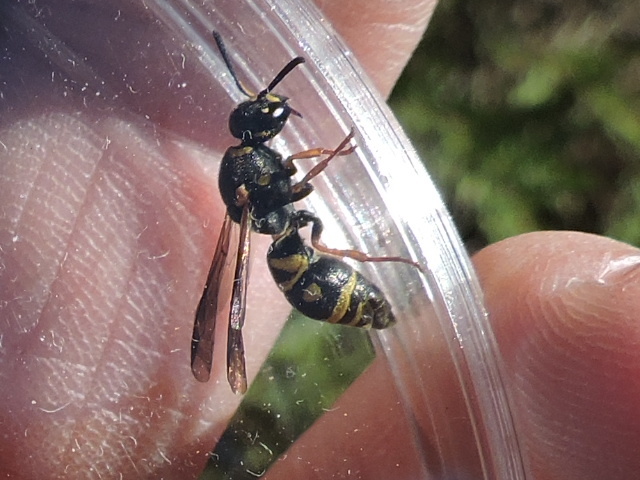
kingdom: Animalia
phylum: Arthropoda
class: Insecta
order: Hymenoptera
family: Eumenidae
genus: Parancistrocerus
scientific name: Parancistrocerus vagus
